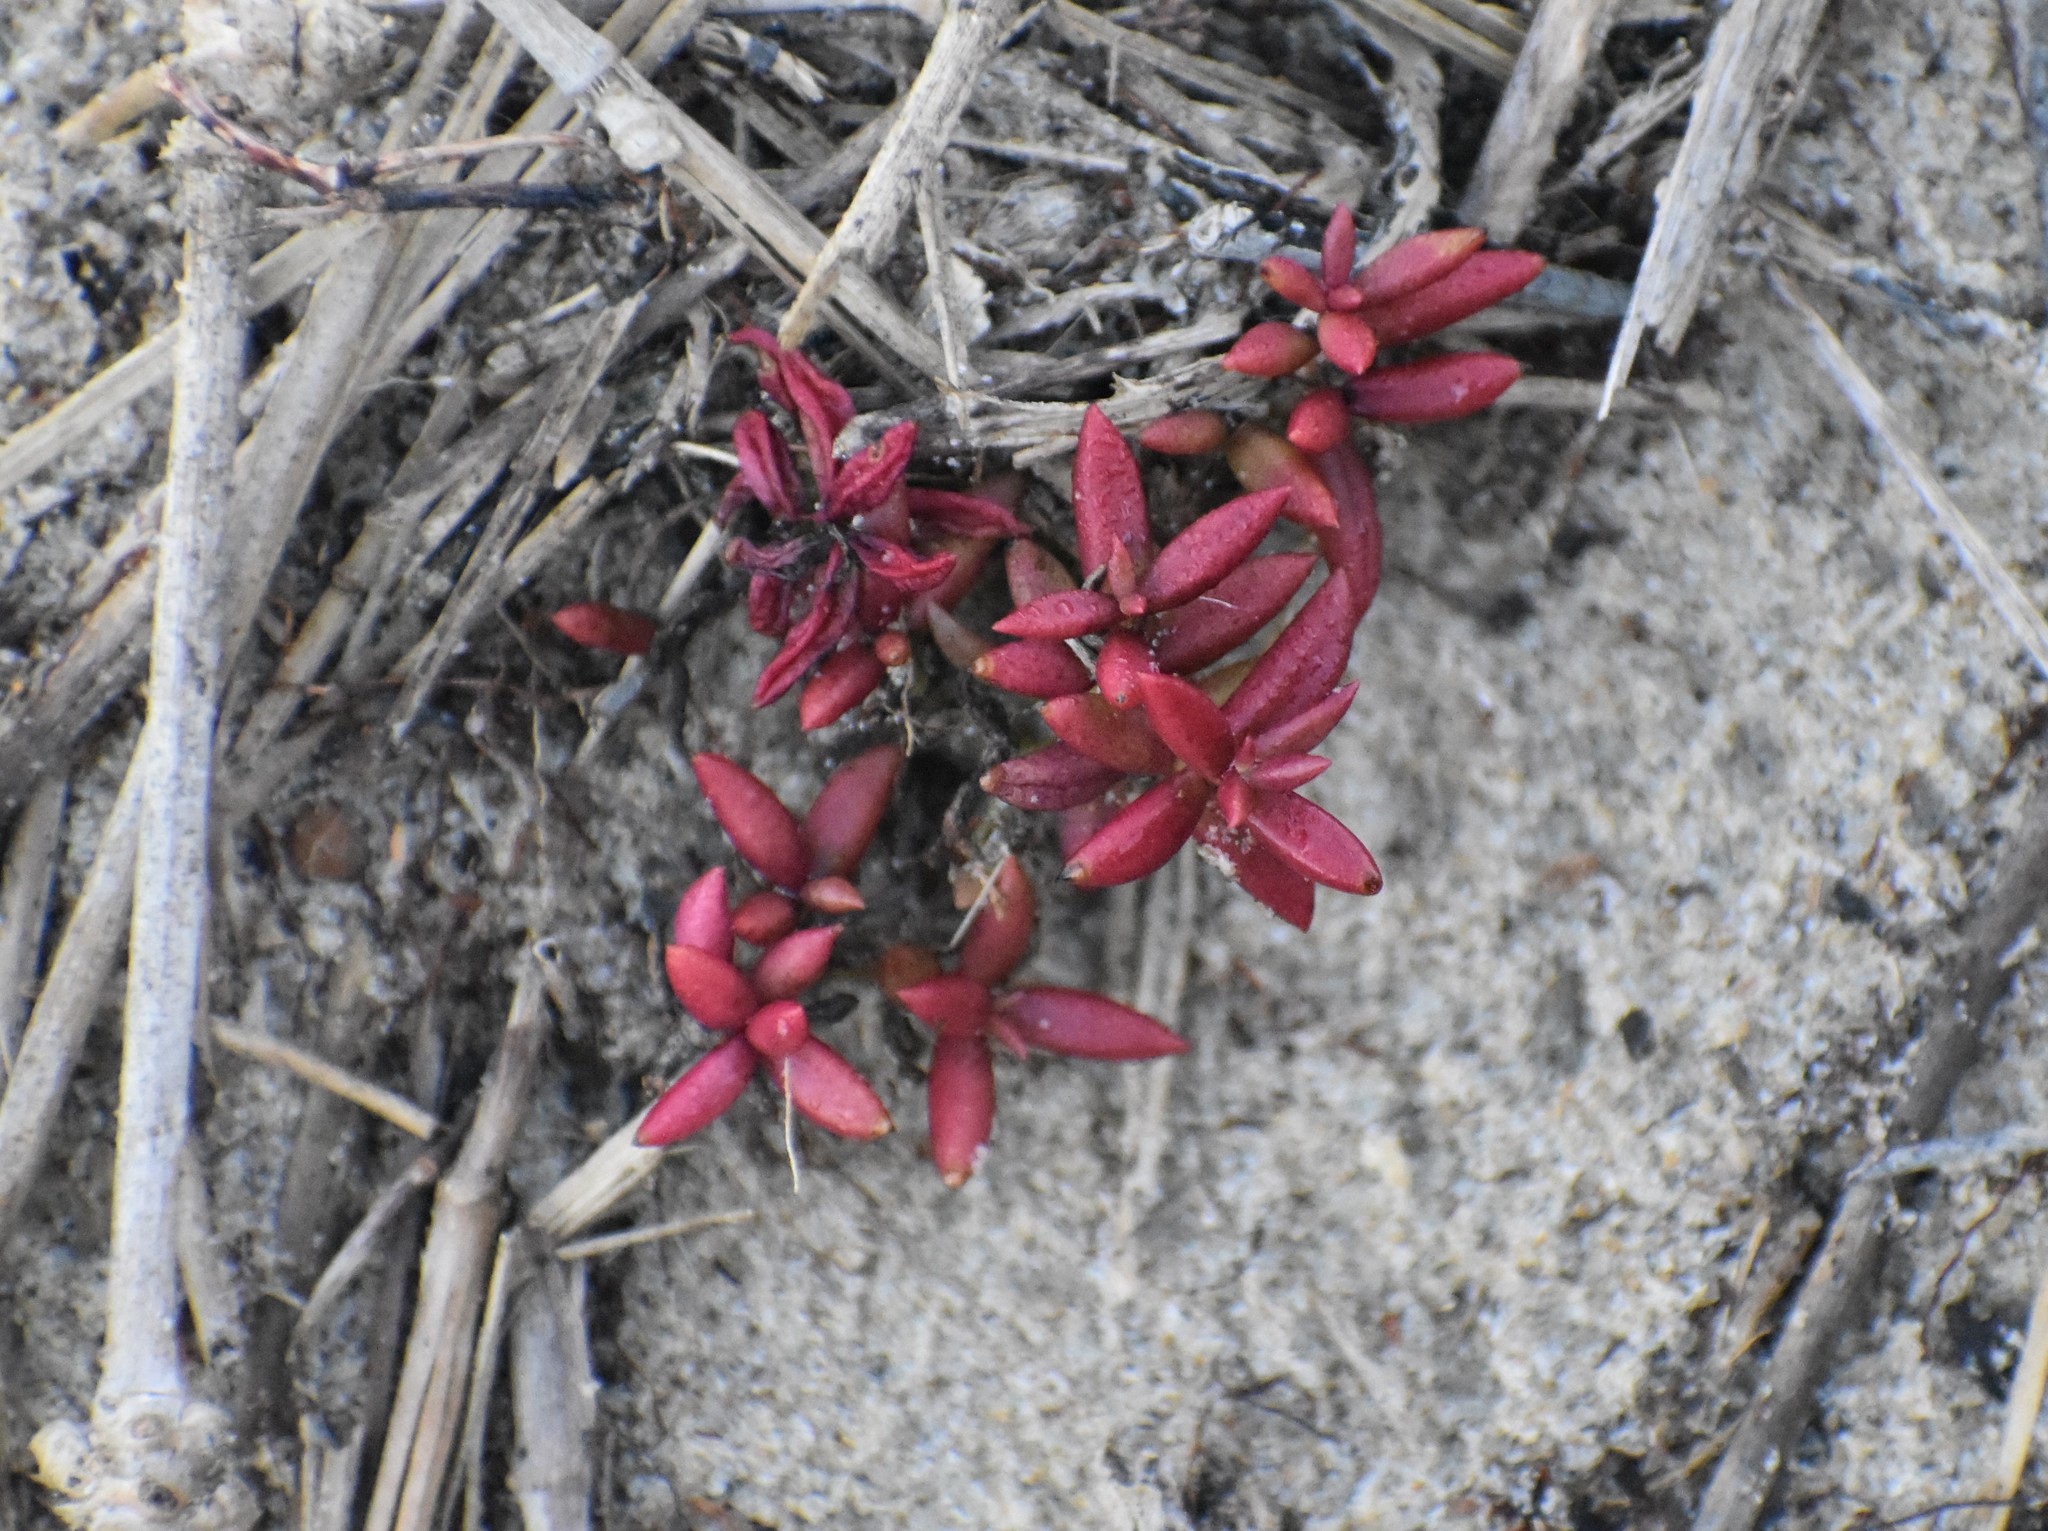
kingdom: Plantae
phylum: Tracheophyta
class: Magnoliopsida
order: Saxifragales
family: Crassulaceae
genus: Crassula
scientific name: Crassula expansa
